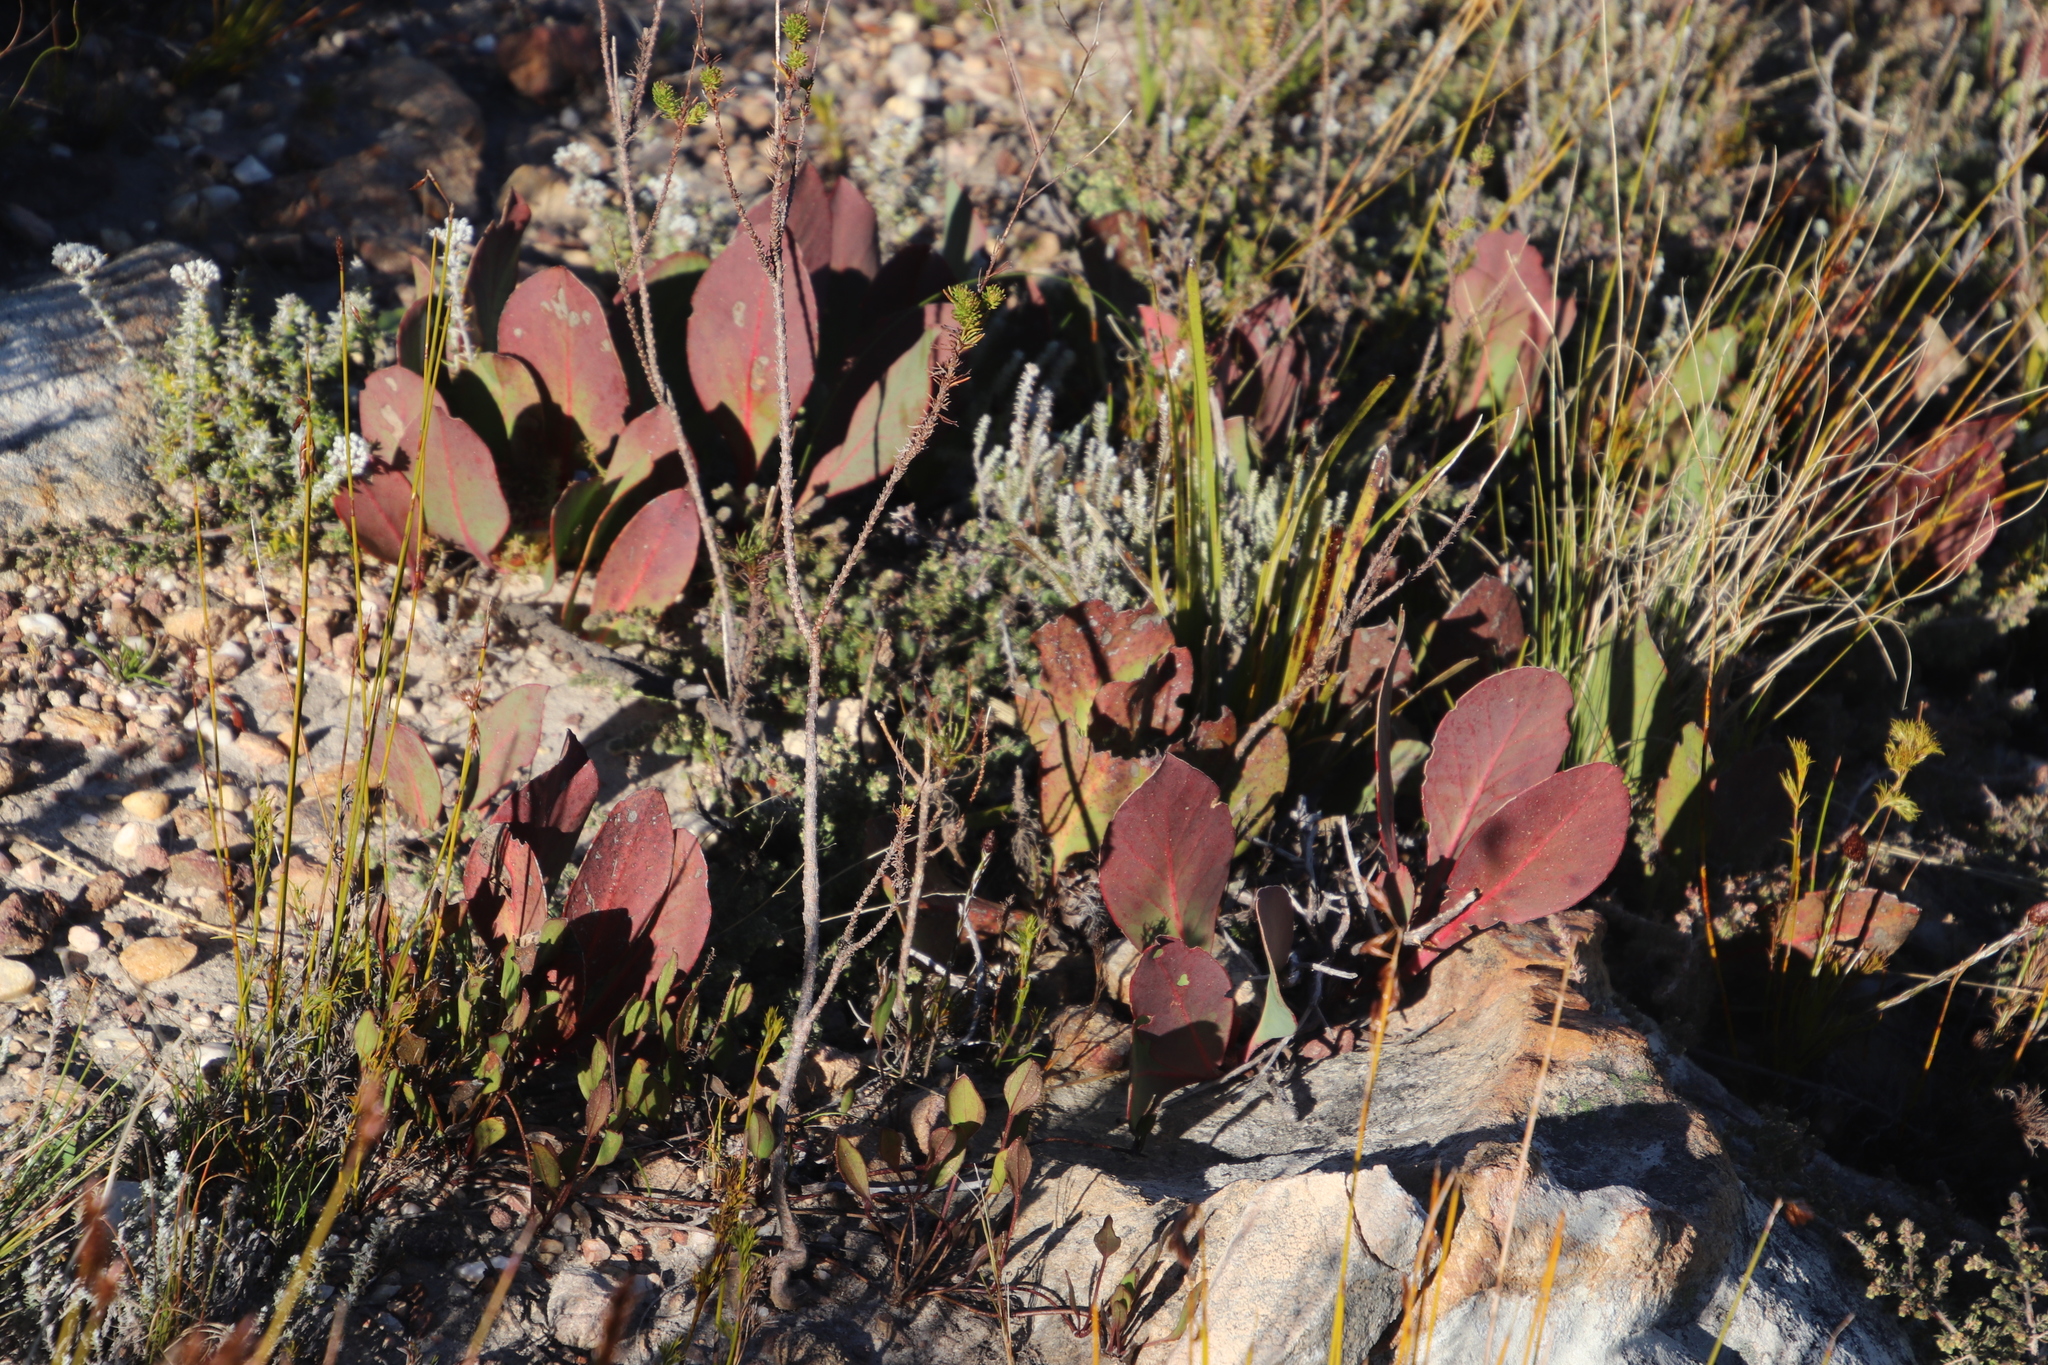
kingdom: Plantae
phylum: Tracheophyta
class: Magnoliopsida
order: Proteales
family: Proteaceae
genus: Protea
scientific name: Protea acaulos
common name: Common ground sugarbush
